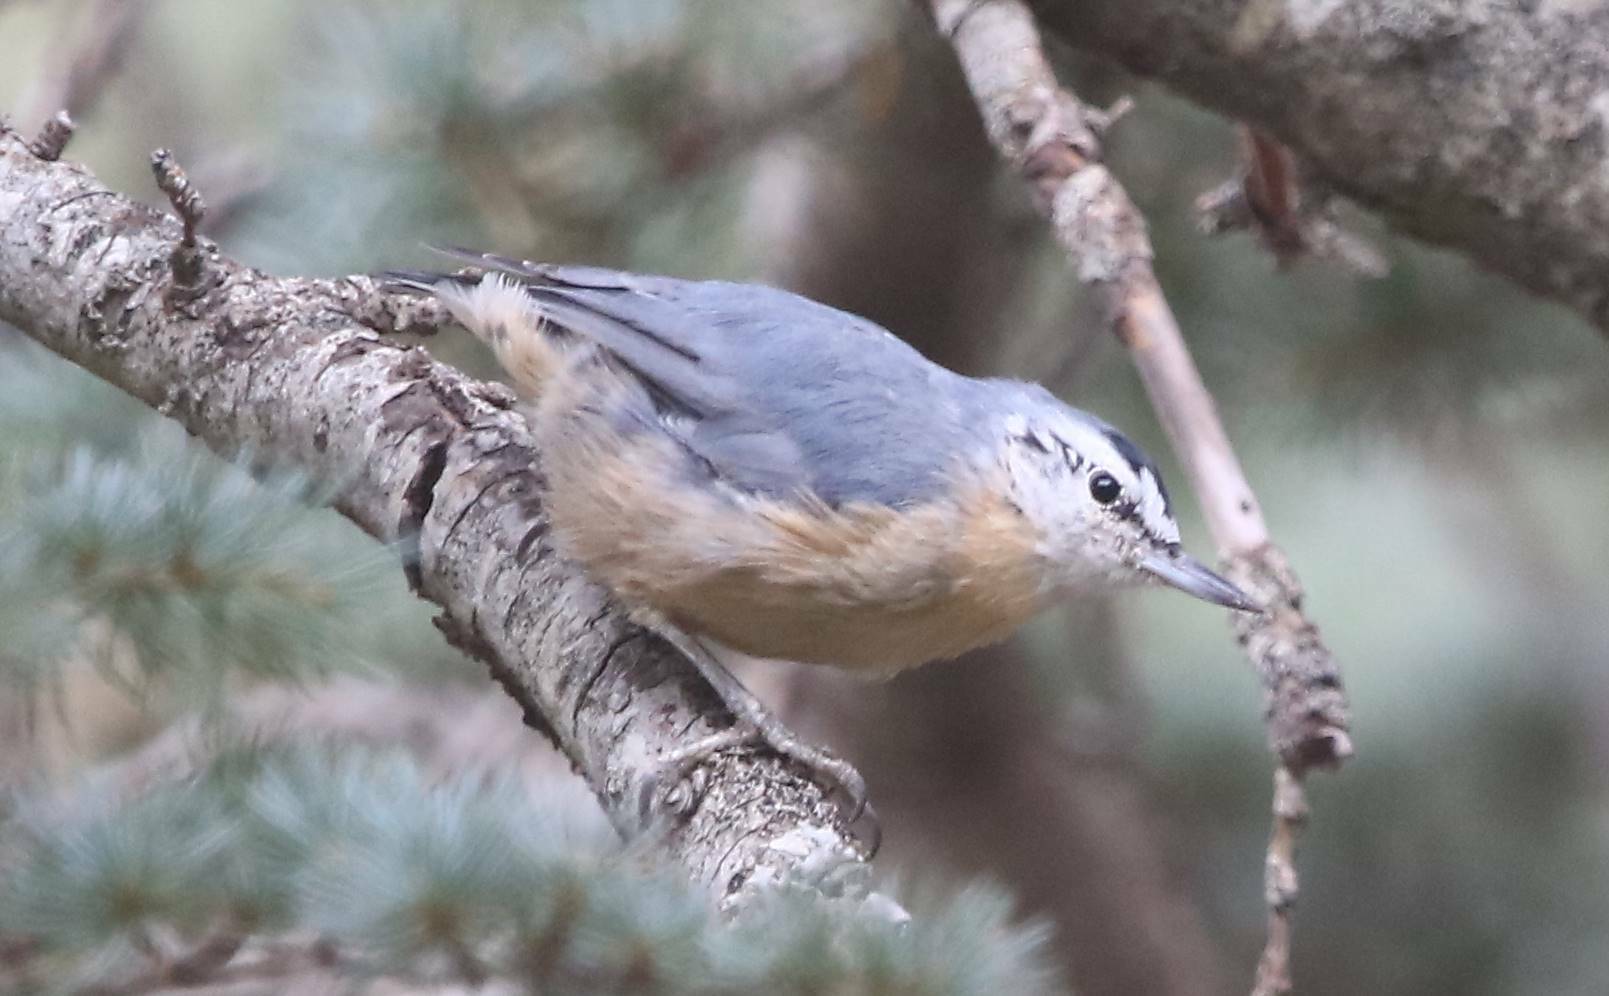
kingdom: Animalia
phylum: Chordata
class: Aves
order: Passeriformes
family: Sittidae
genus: Sitta
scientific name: Sitta ledanti
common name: Algerian nuthatch
